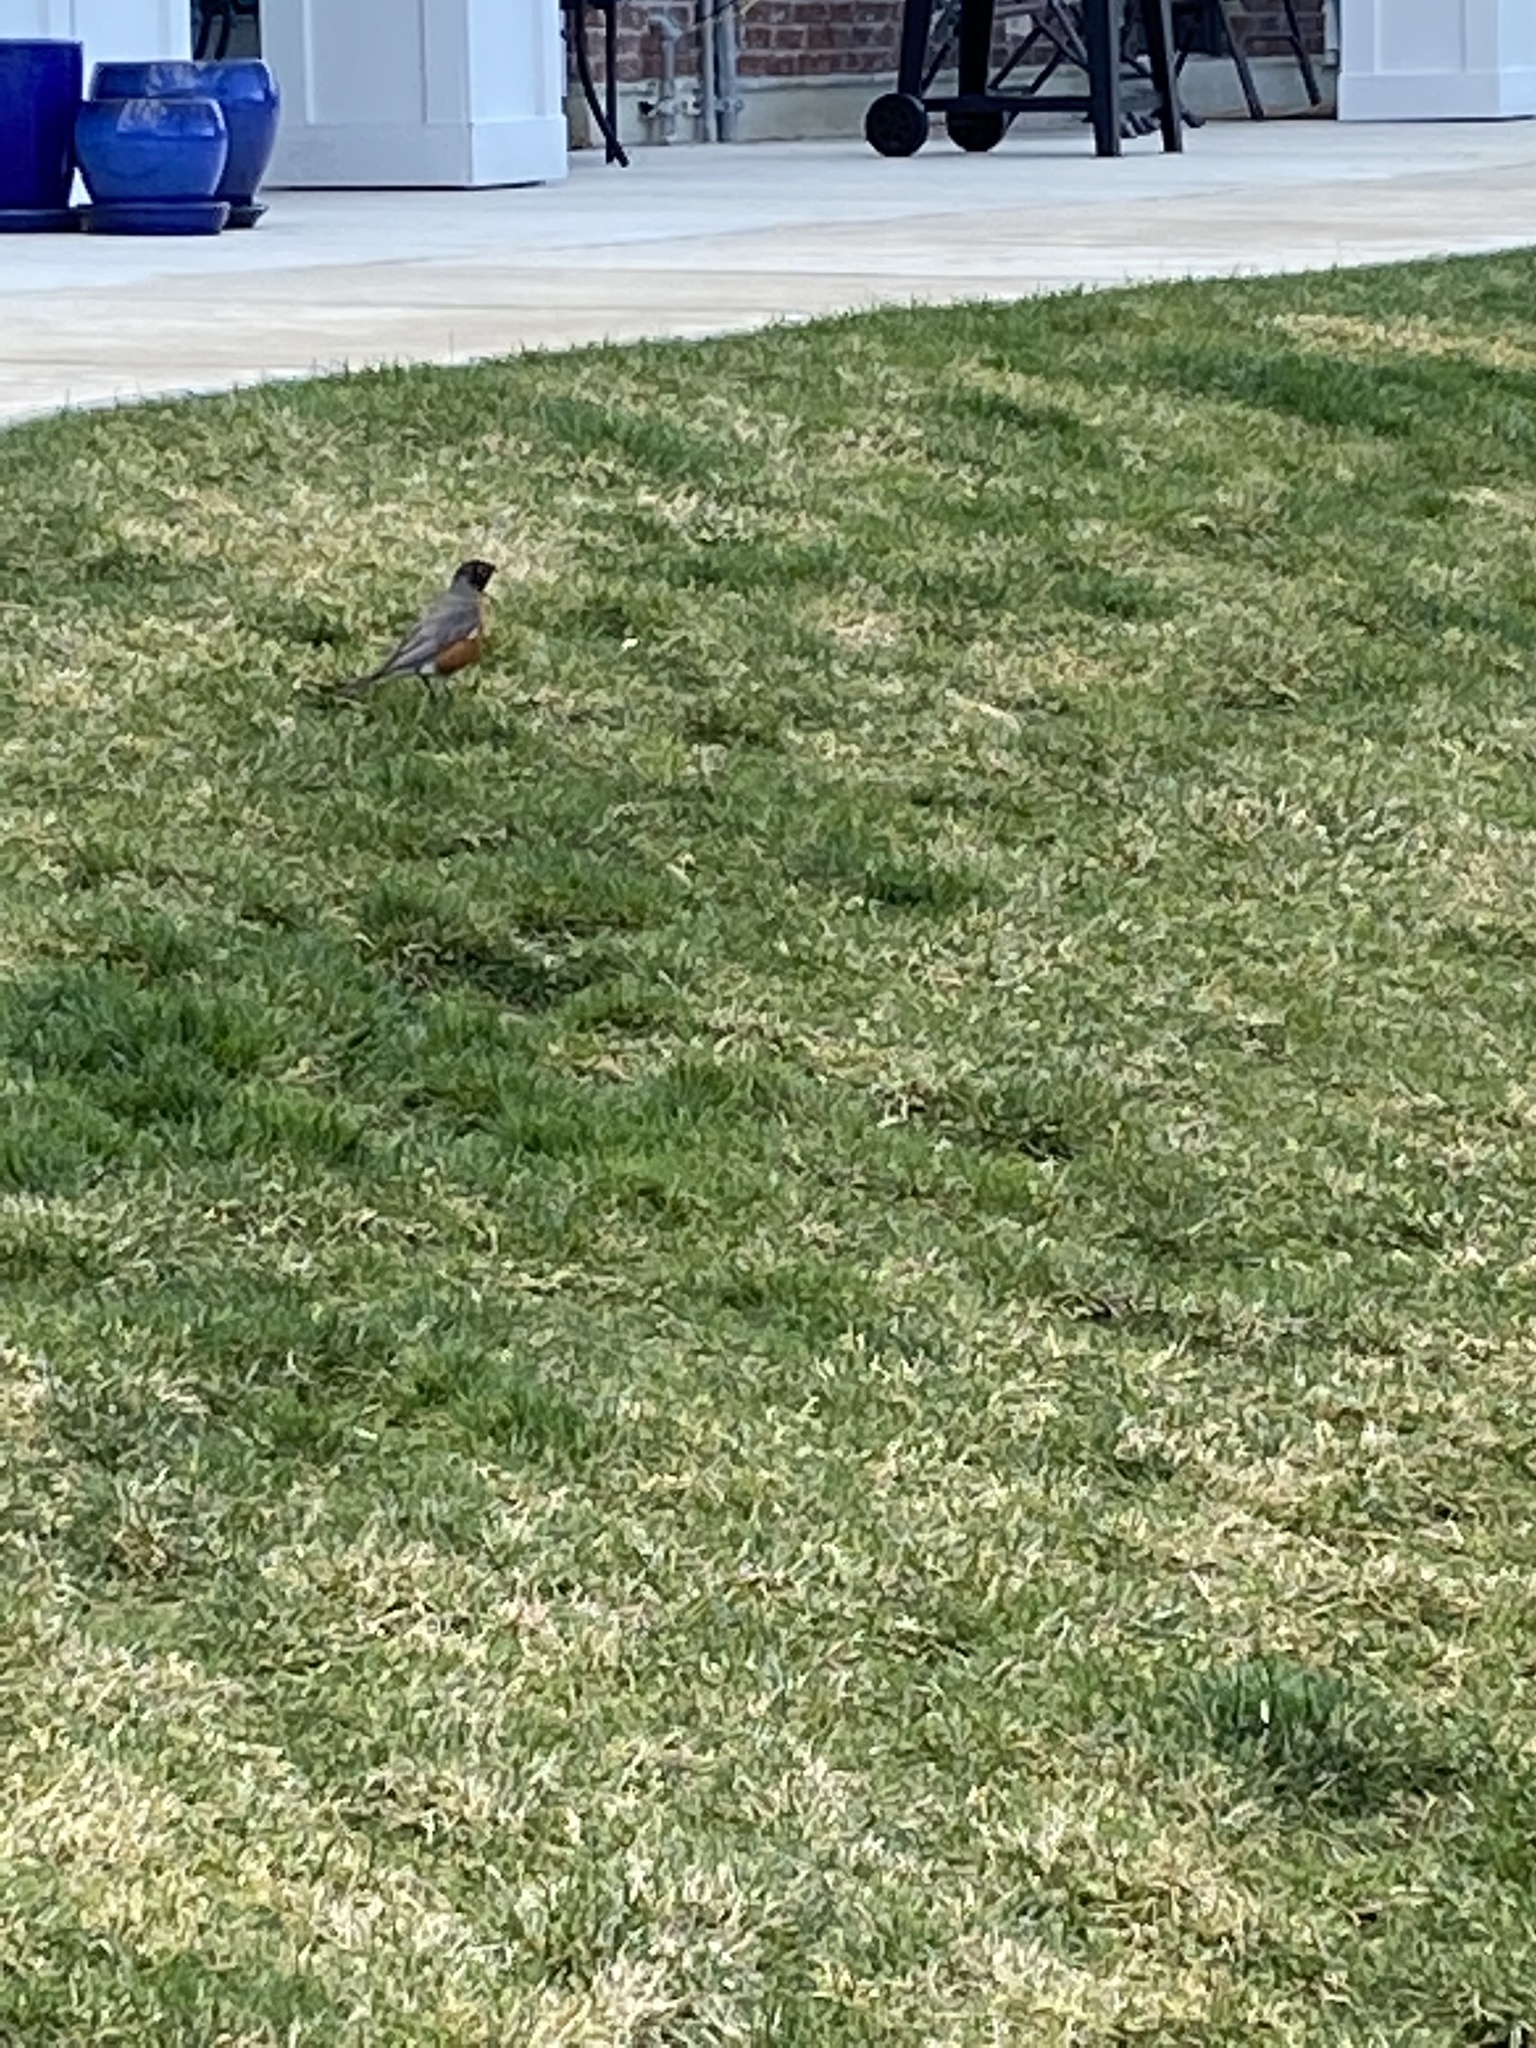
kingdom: Animalia
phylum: Chordata
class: Aves
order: Passeriformes
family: Turdidae
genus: Turdus
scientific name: Turdus migratorius
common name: American robin
